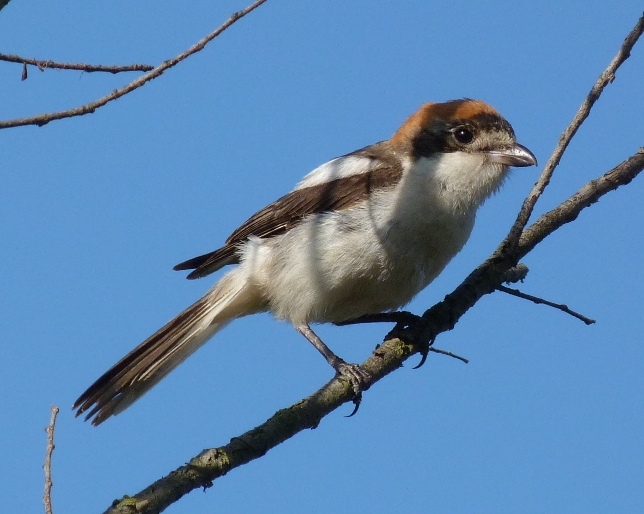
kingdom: Animalia
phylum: Chordata
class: Aves
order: Passeriformes
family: Laniidae
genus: Lanius
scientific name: Lanius senator
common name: Woodchat shrike
